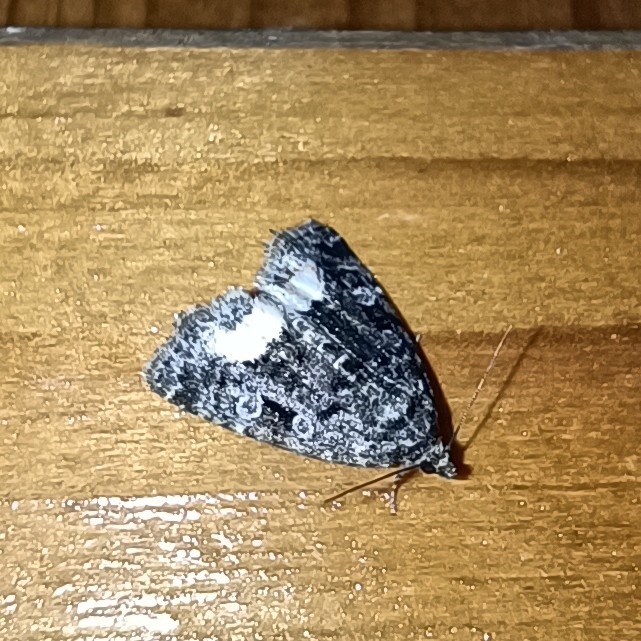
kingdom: Animalia
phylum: Arthropoda
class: Insecta
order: Lepidoptera
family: Noctuidae
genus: Deltote
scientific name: Deltote pygarga
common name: Marbled white spot
